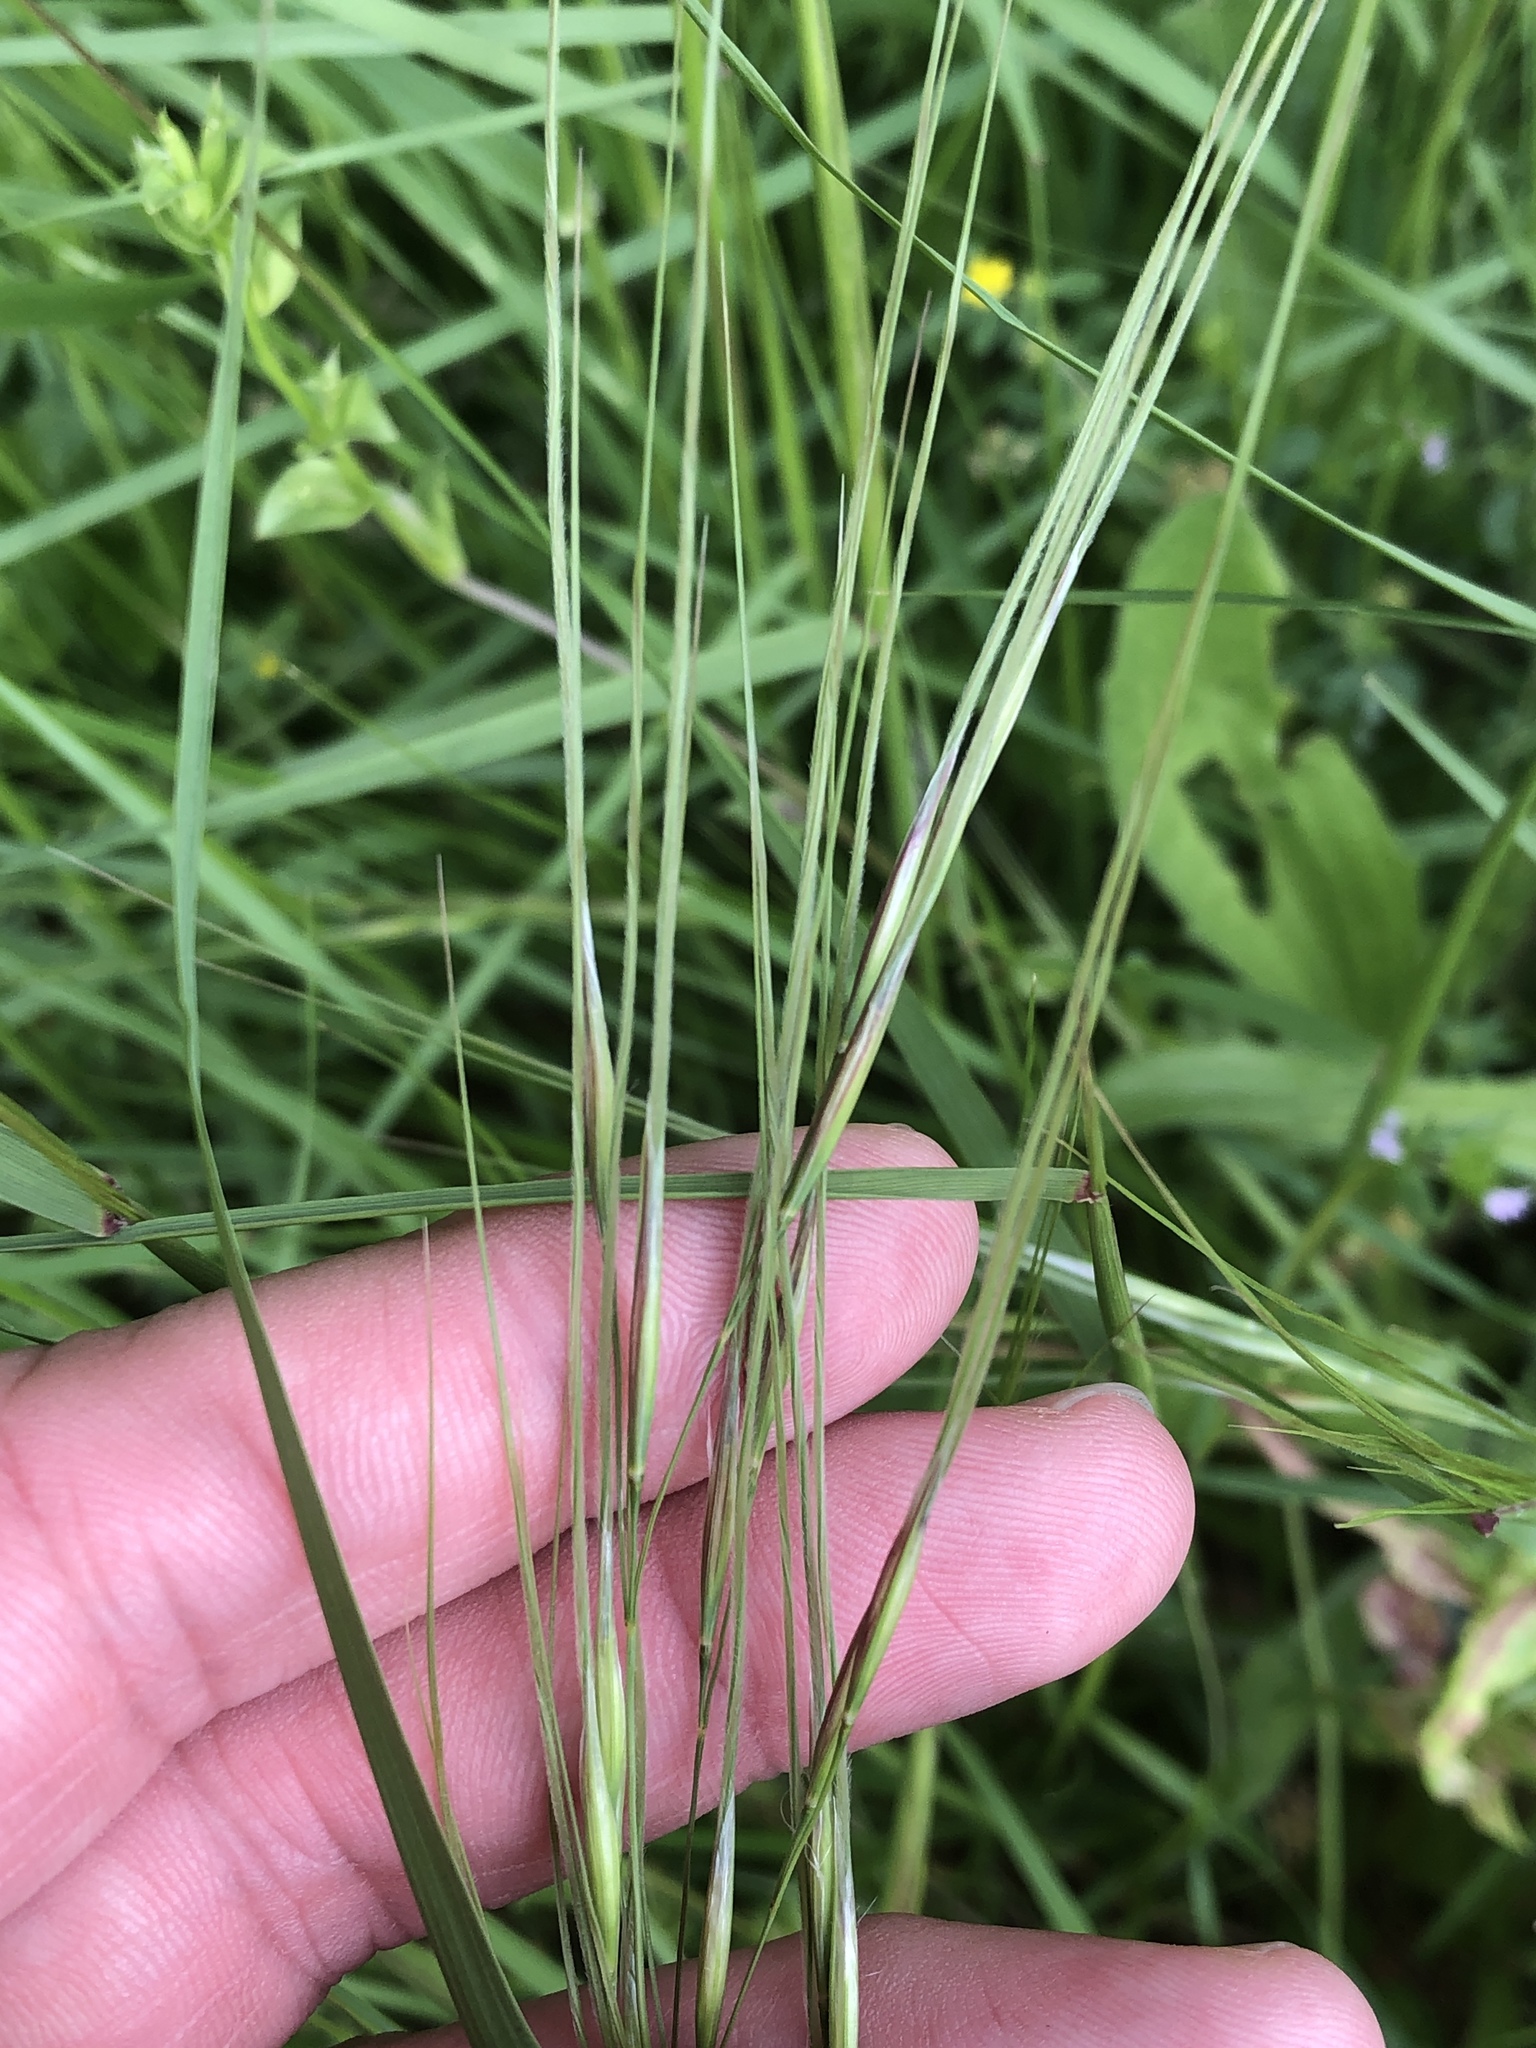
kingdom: Plantae
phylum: Tracheophyta
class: Liliopsida
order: Poales
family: Poaceae
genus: Nassella
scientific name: Nassella leucotricha
